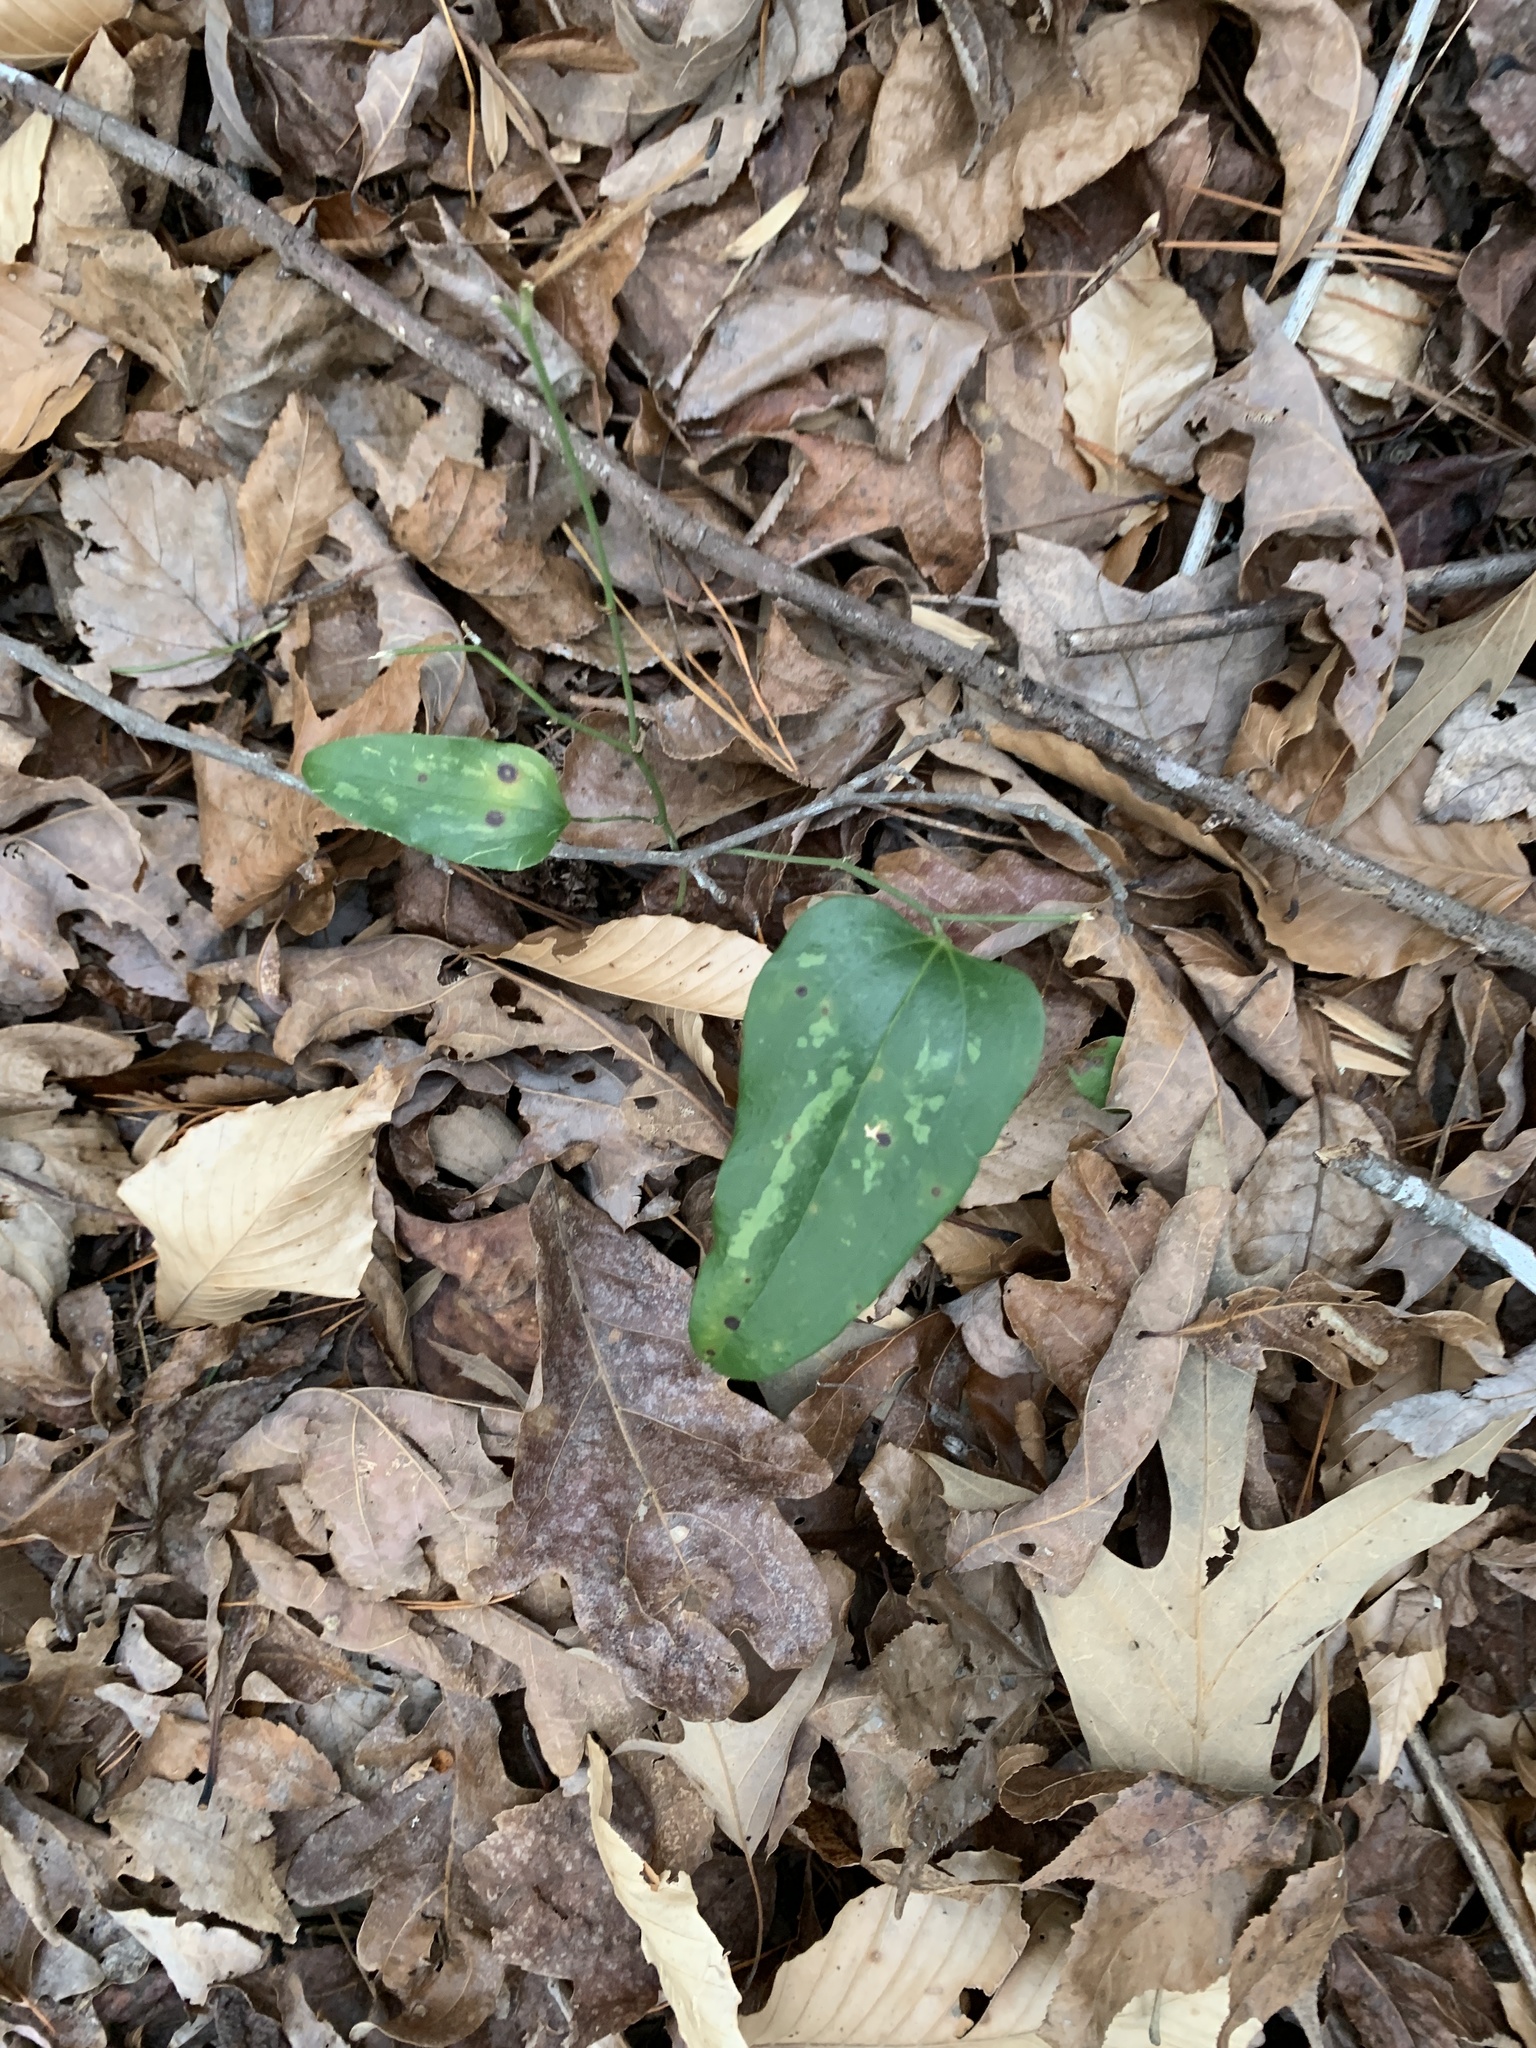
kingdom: Plantae
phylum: Tracheophyta
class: Liliopsida
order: Liliales
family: Smilacaceae
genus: Smilax
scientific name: Smilax glauca
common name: Cat greenbrier
